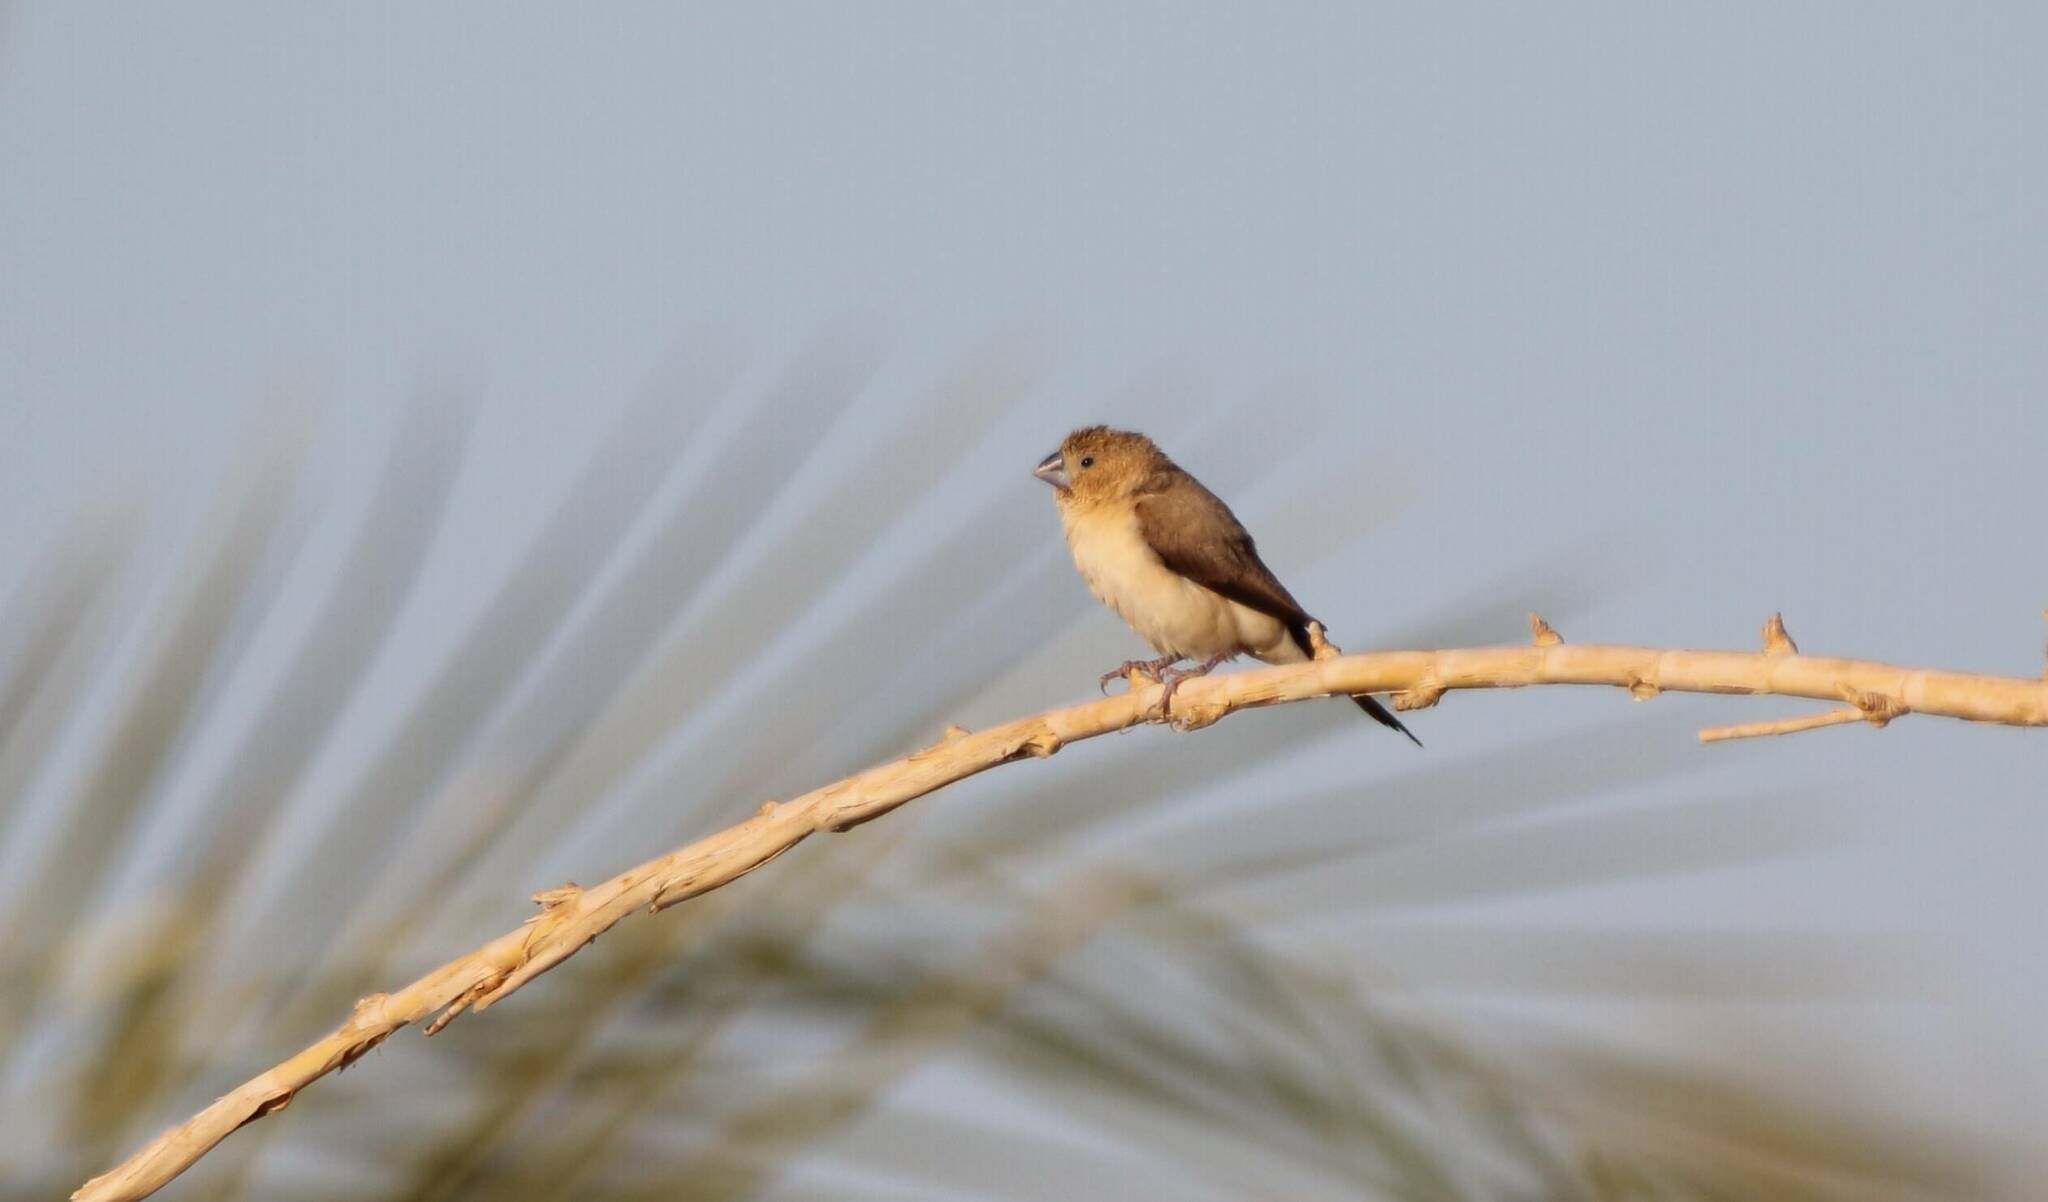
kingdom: Animalia
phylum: Chordata
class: Aves
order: Passeriformes
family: Estrildidae
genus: Euodice
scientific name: Euodice cantans
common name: African silverbill
